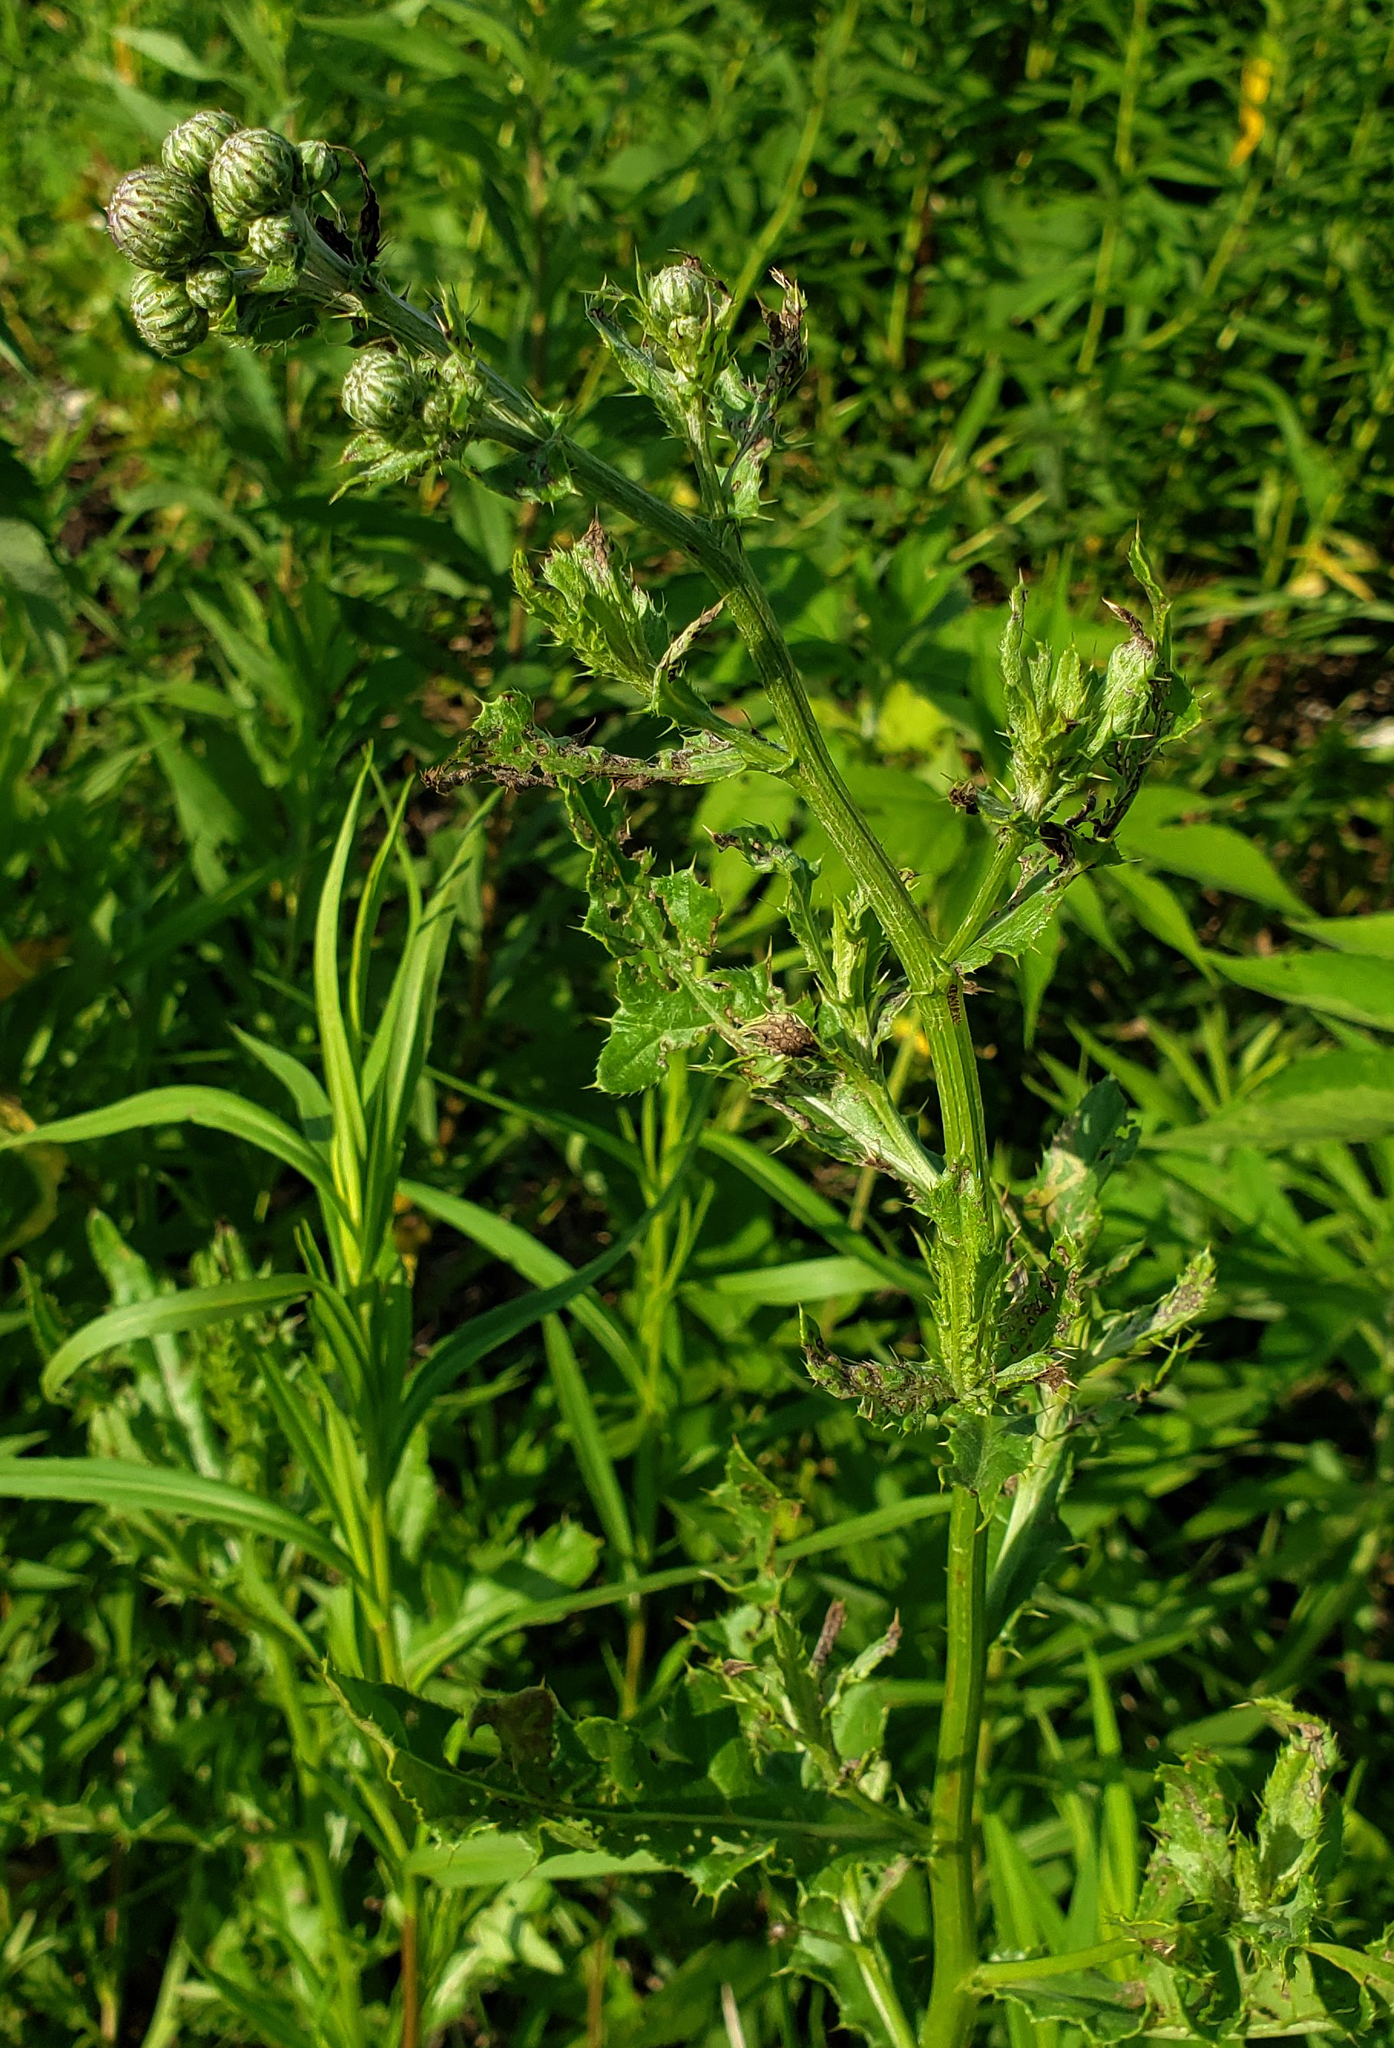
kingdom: Plantae
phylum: Tracheophyta
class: Magnoliopsida
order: Asterales
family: Asteraceae
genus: Cirsium
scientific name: Cirsium arvense
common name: Creeping thistle
